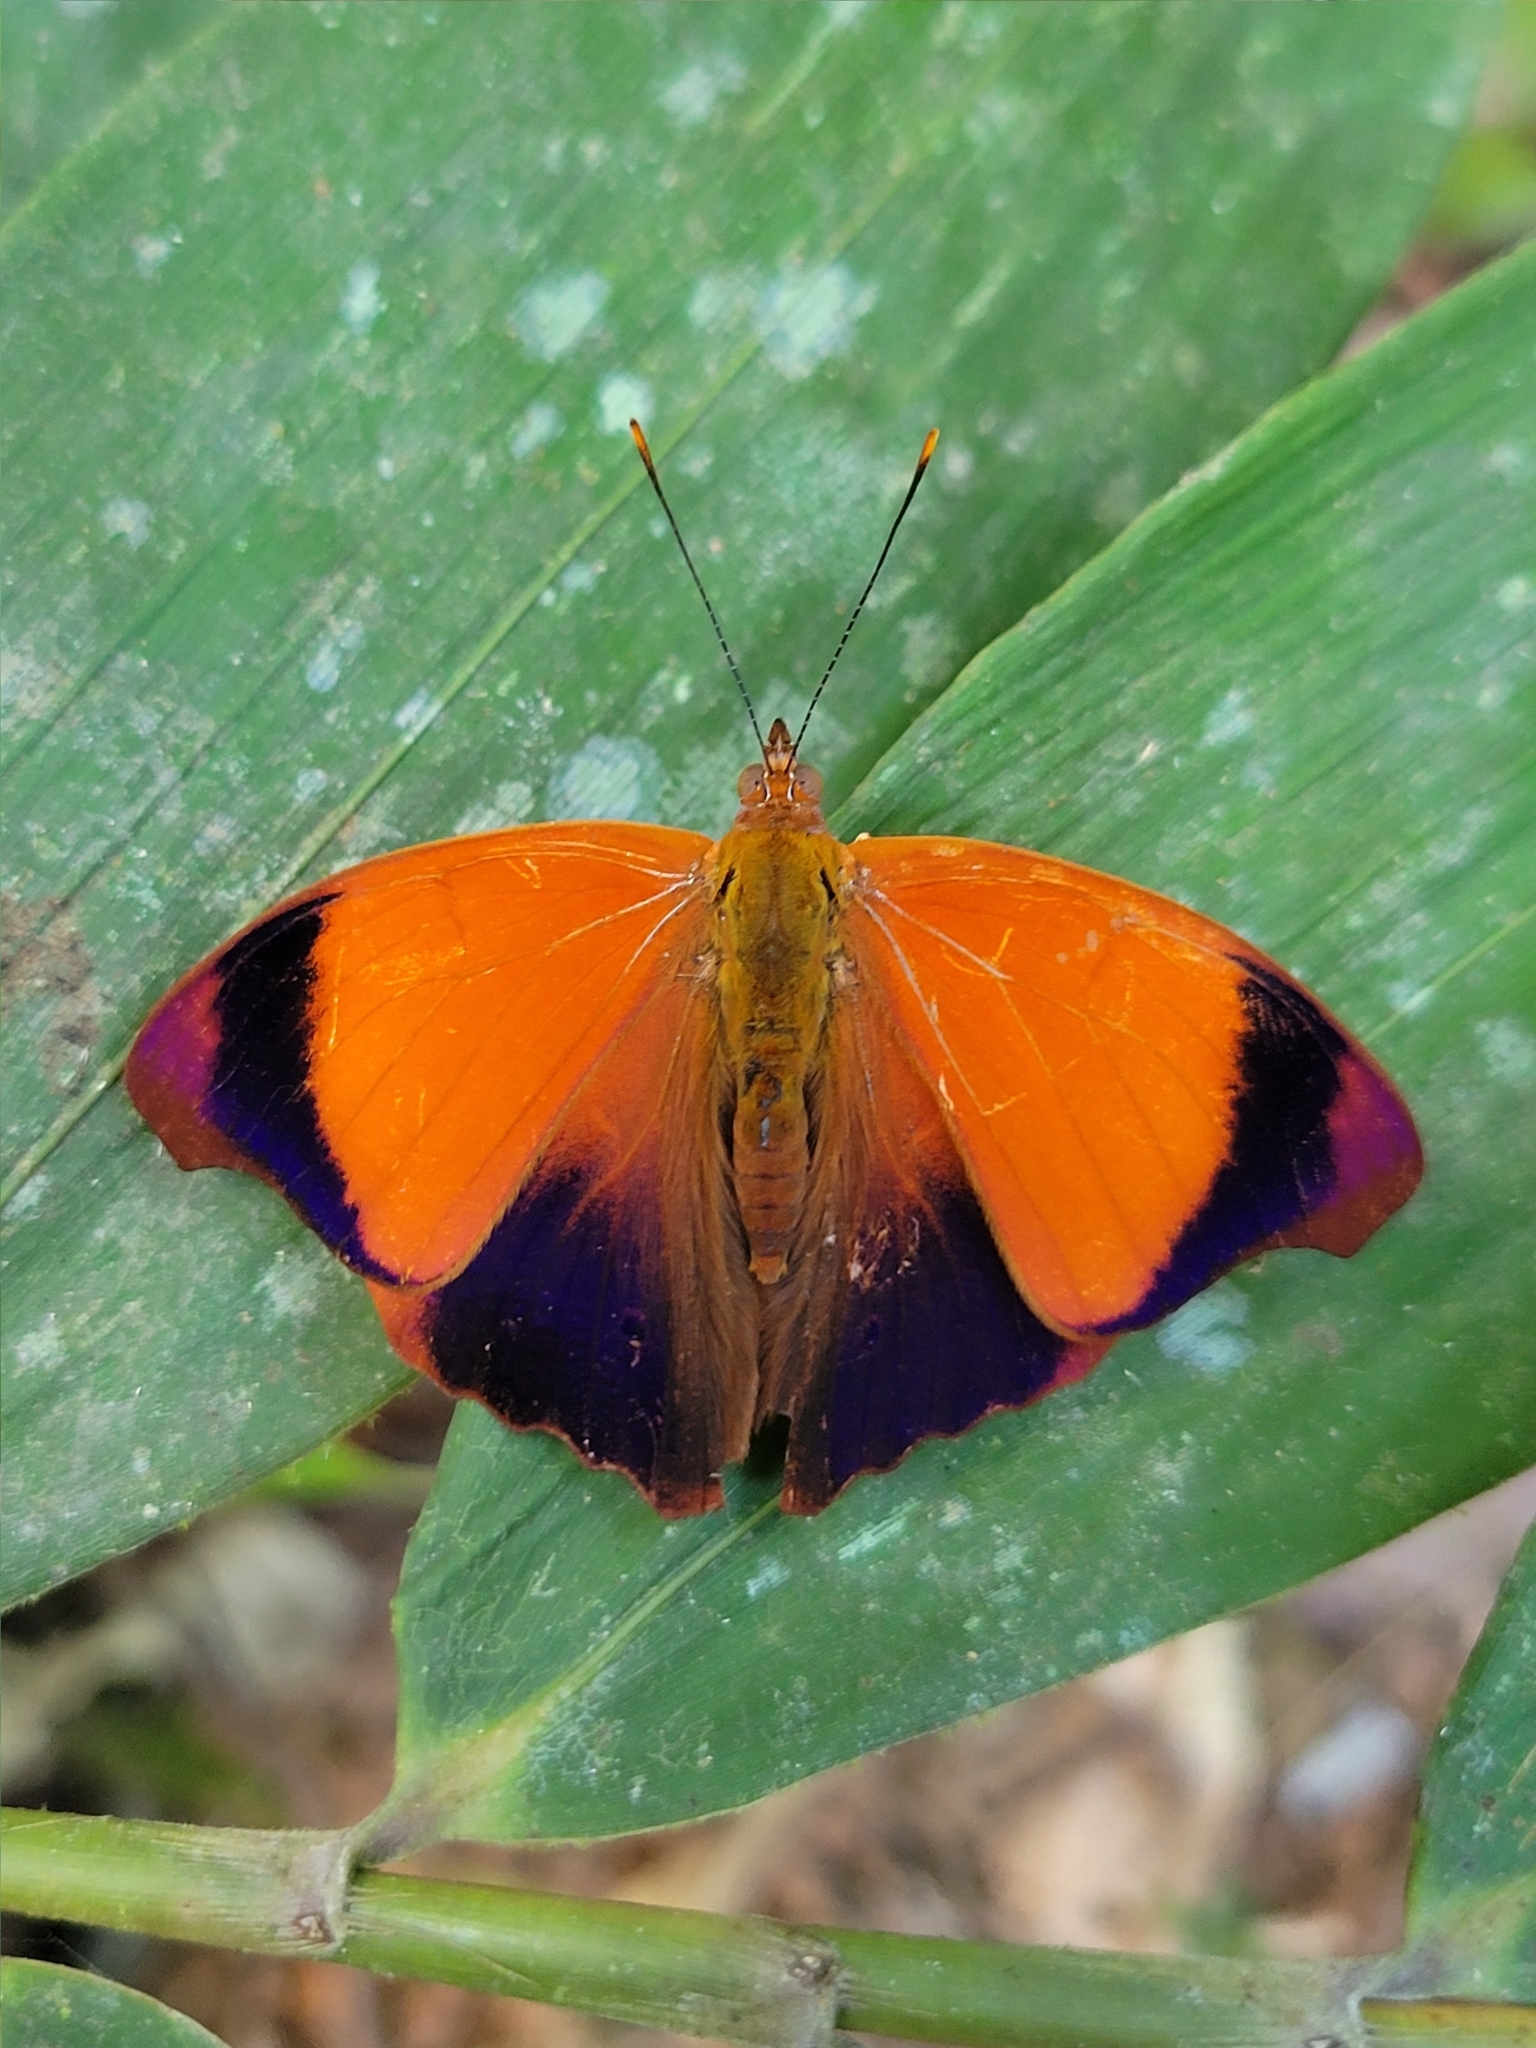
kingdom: Animalia
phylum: Arthropoda
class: Insecta
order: Lepidoptera
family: Nymphalidae
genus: Temenis
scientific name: Temenis laothoe
